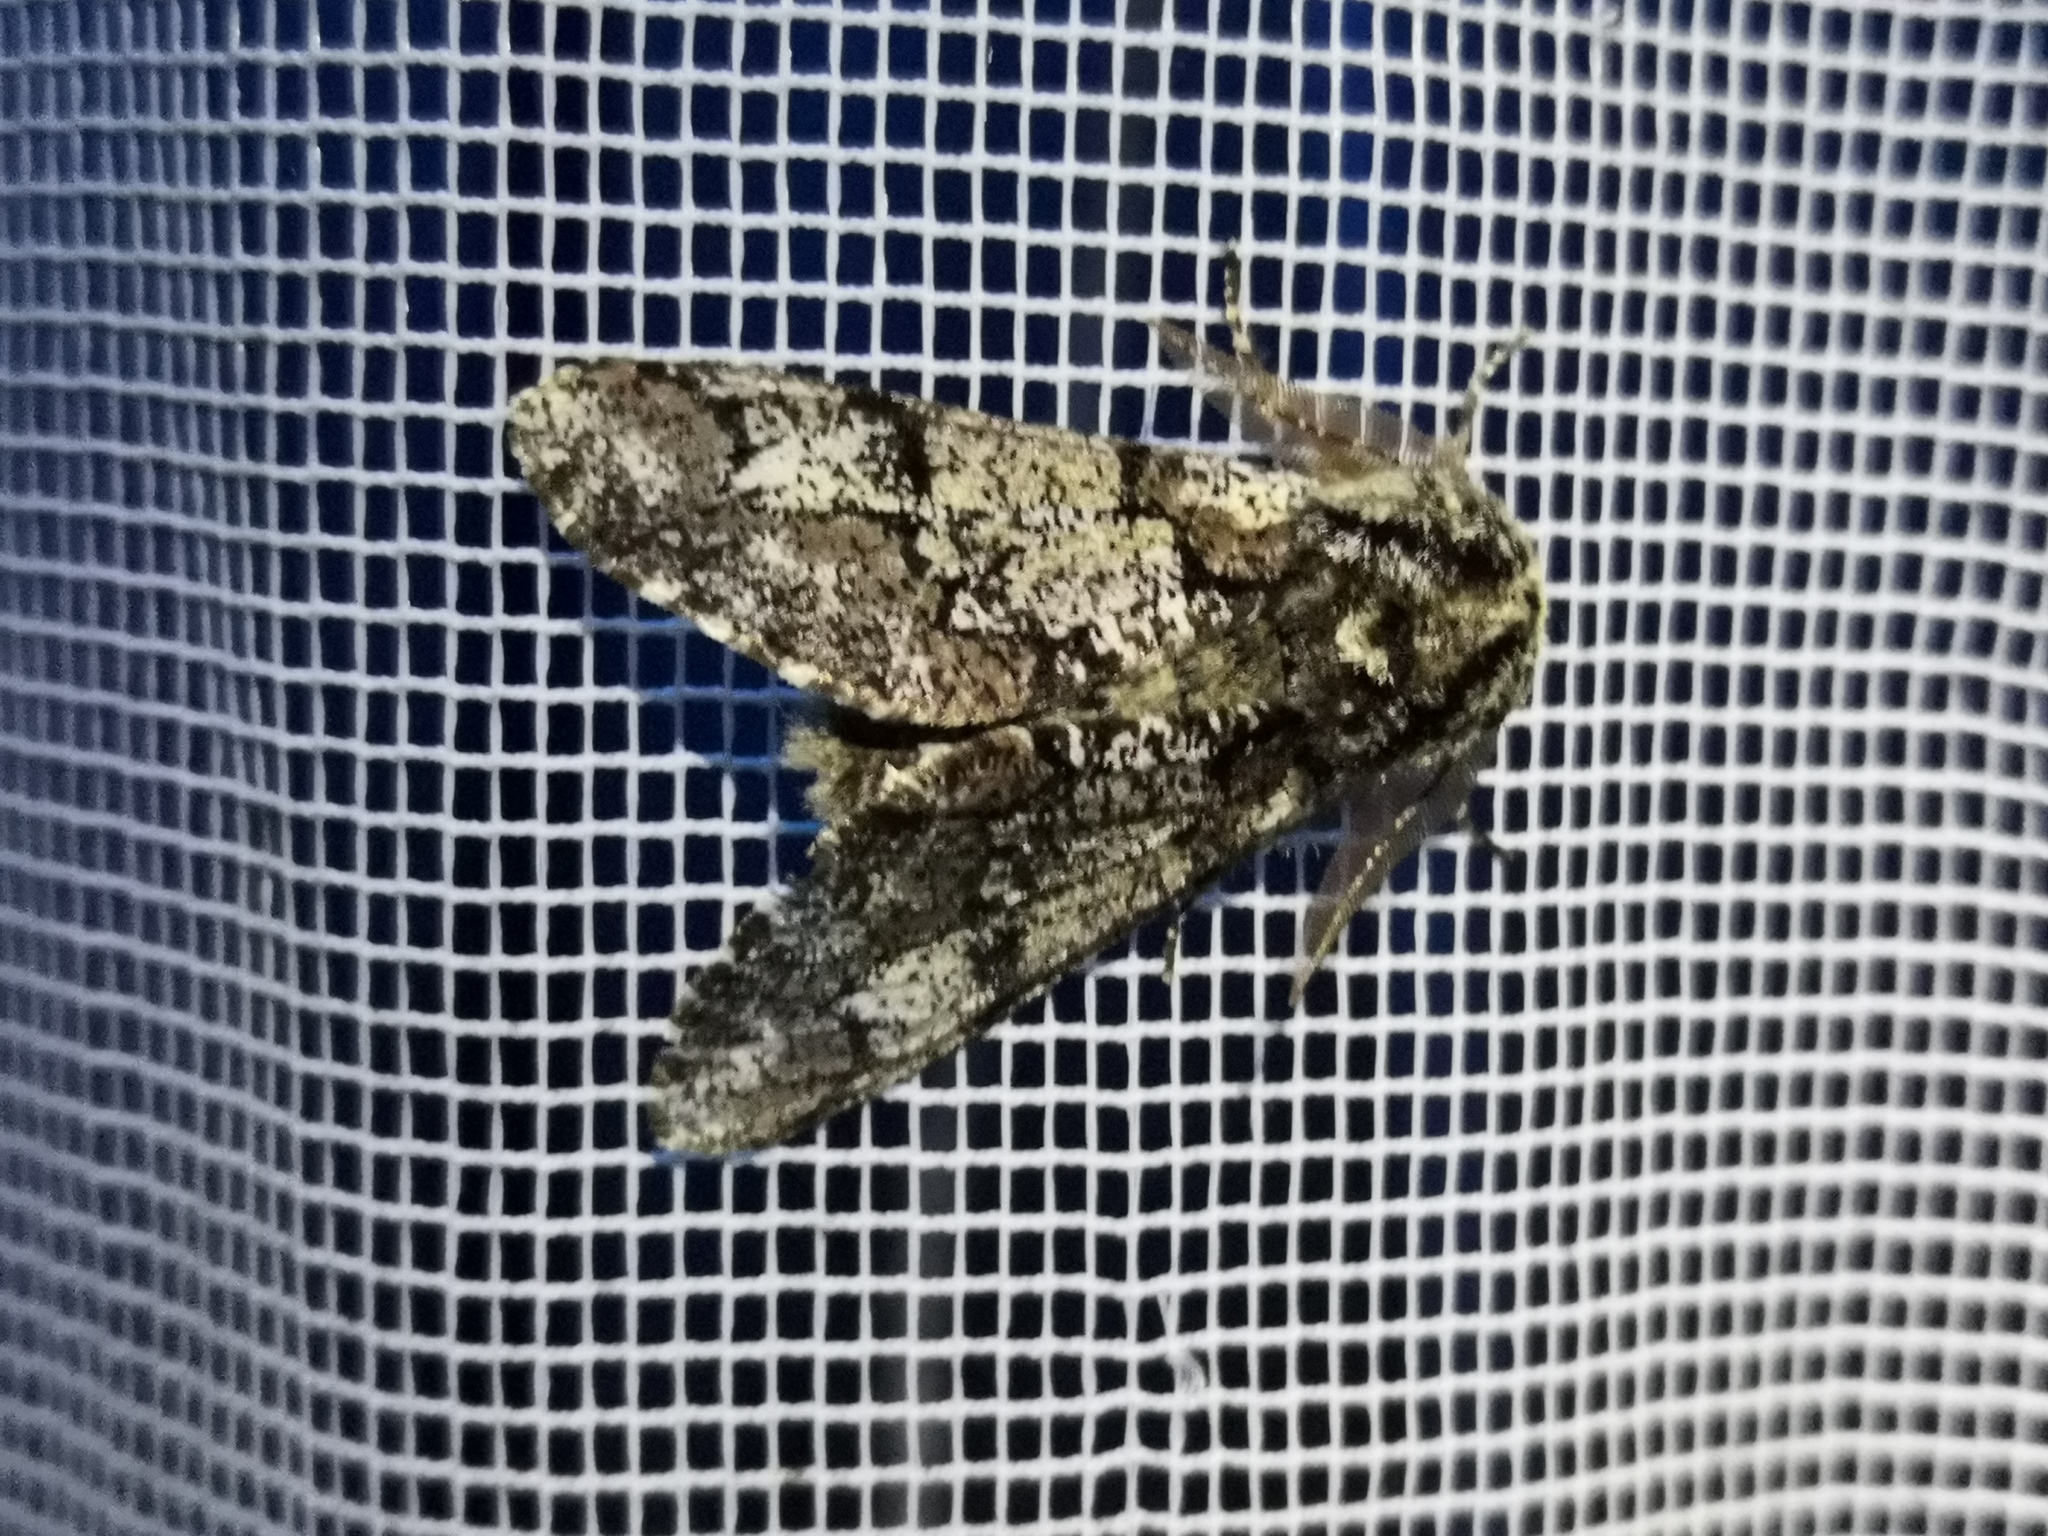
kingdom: Animalia
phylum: Arthropoda
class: Insecta
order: Lepidoptera
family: Geometridae
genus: Biston
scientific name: Biston strataria
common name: Oak beauty
